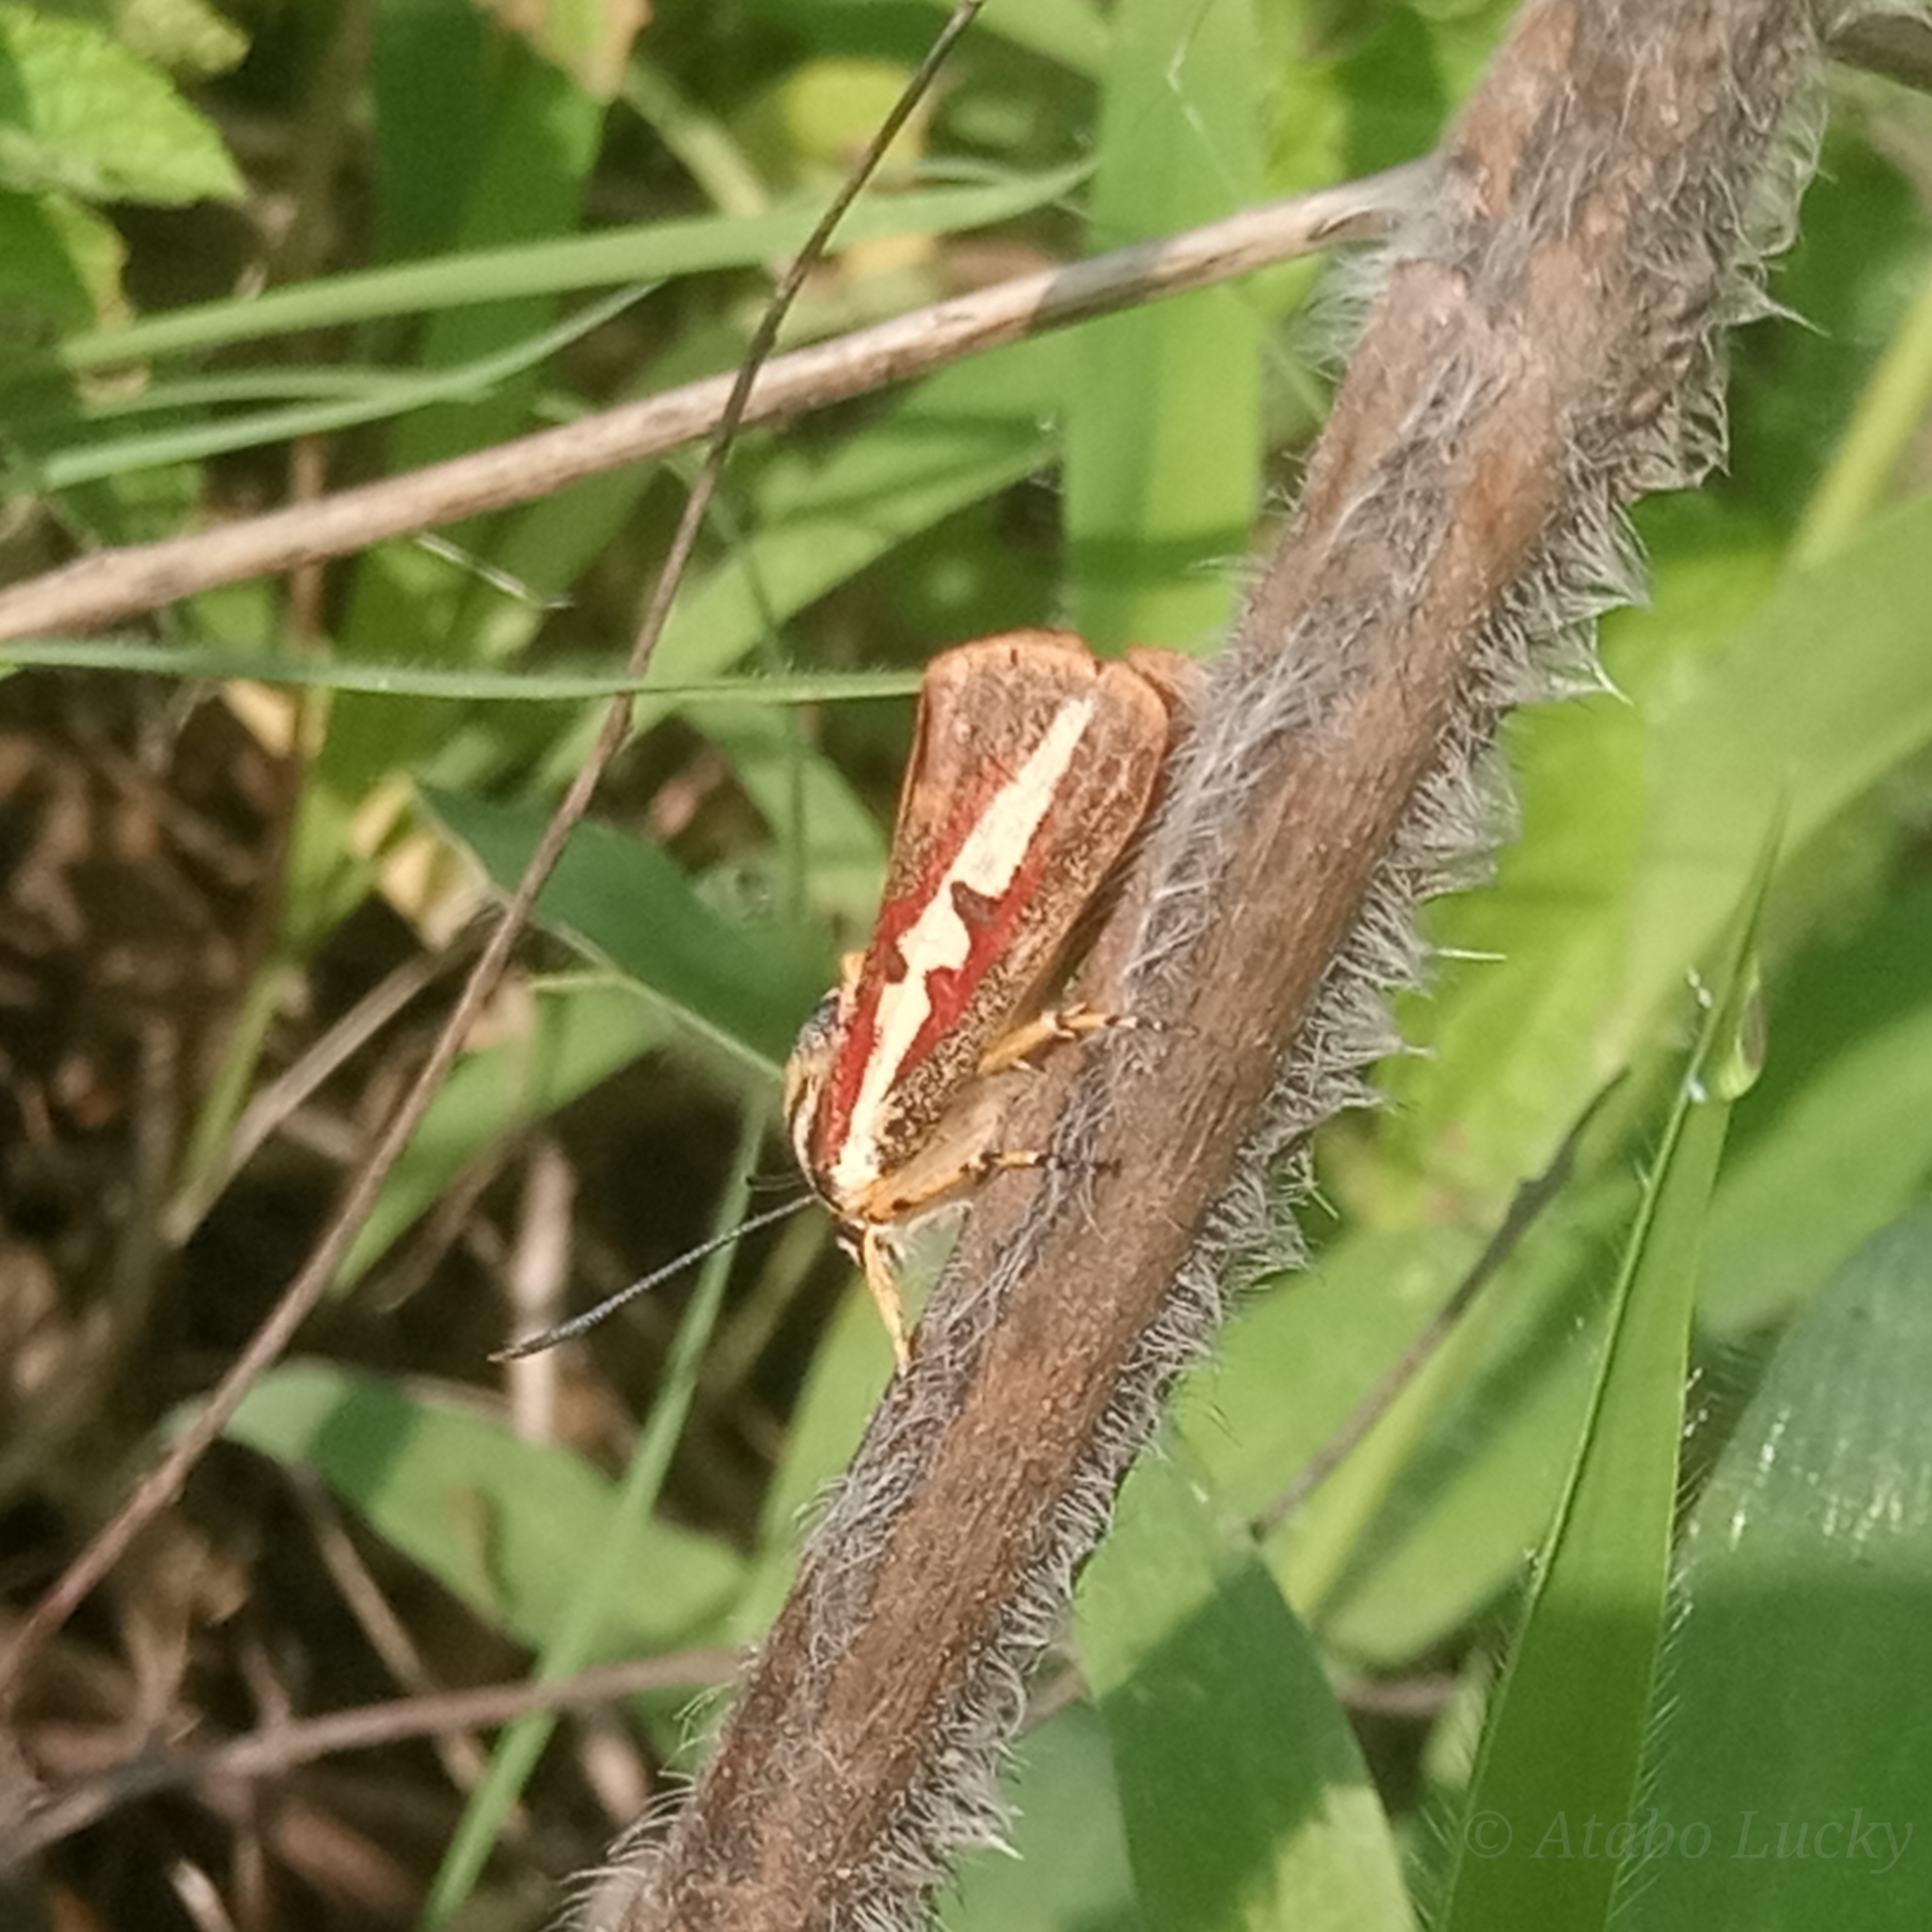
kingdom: Animalia
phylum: Arthropoda
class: Insecta
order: Lepidoptera
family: Noctuidae
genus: Aegocera
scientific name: Aegocera rectilinea
